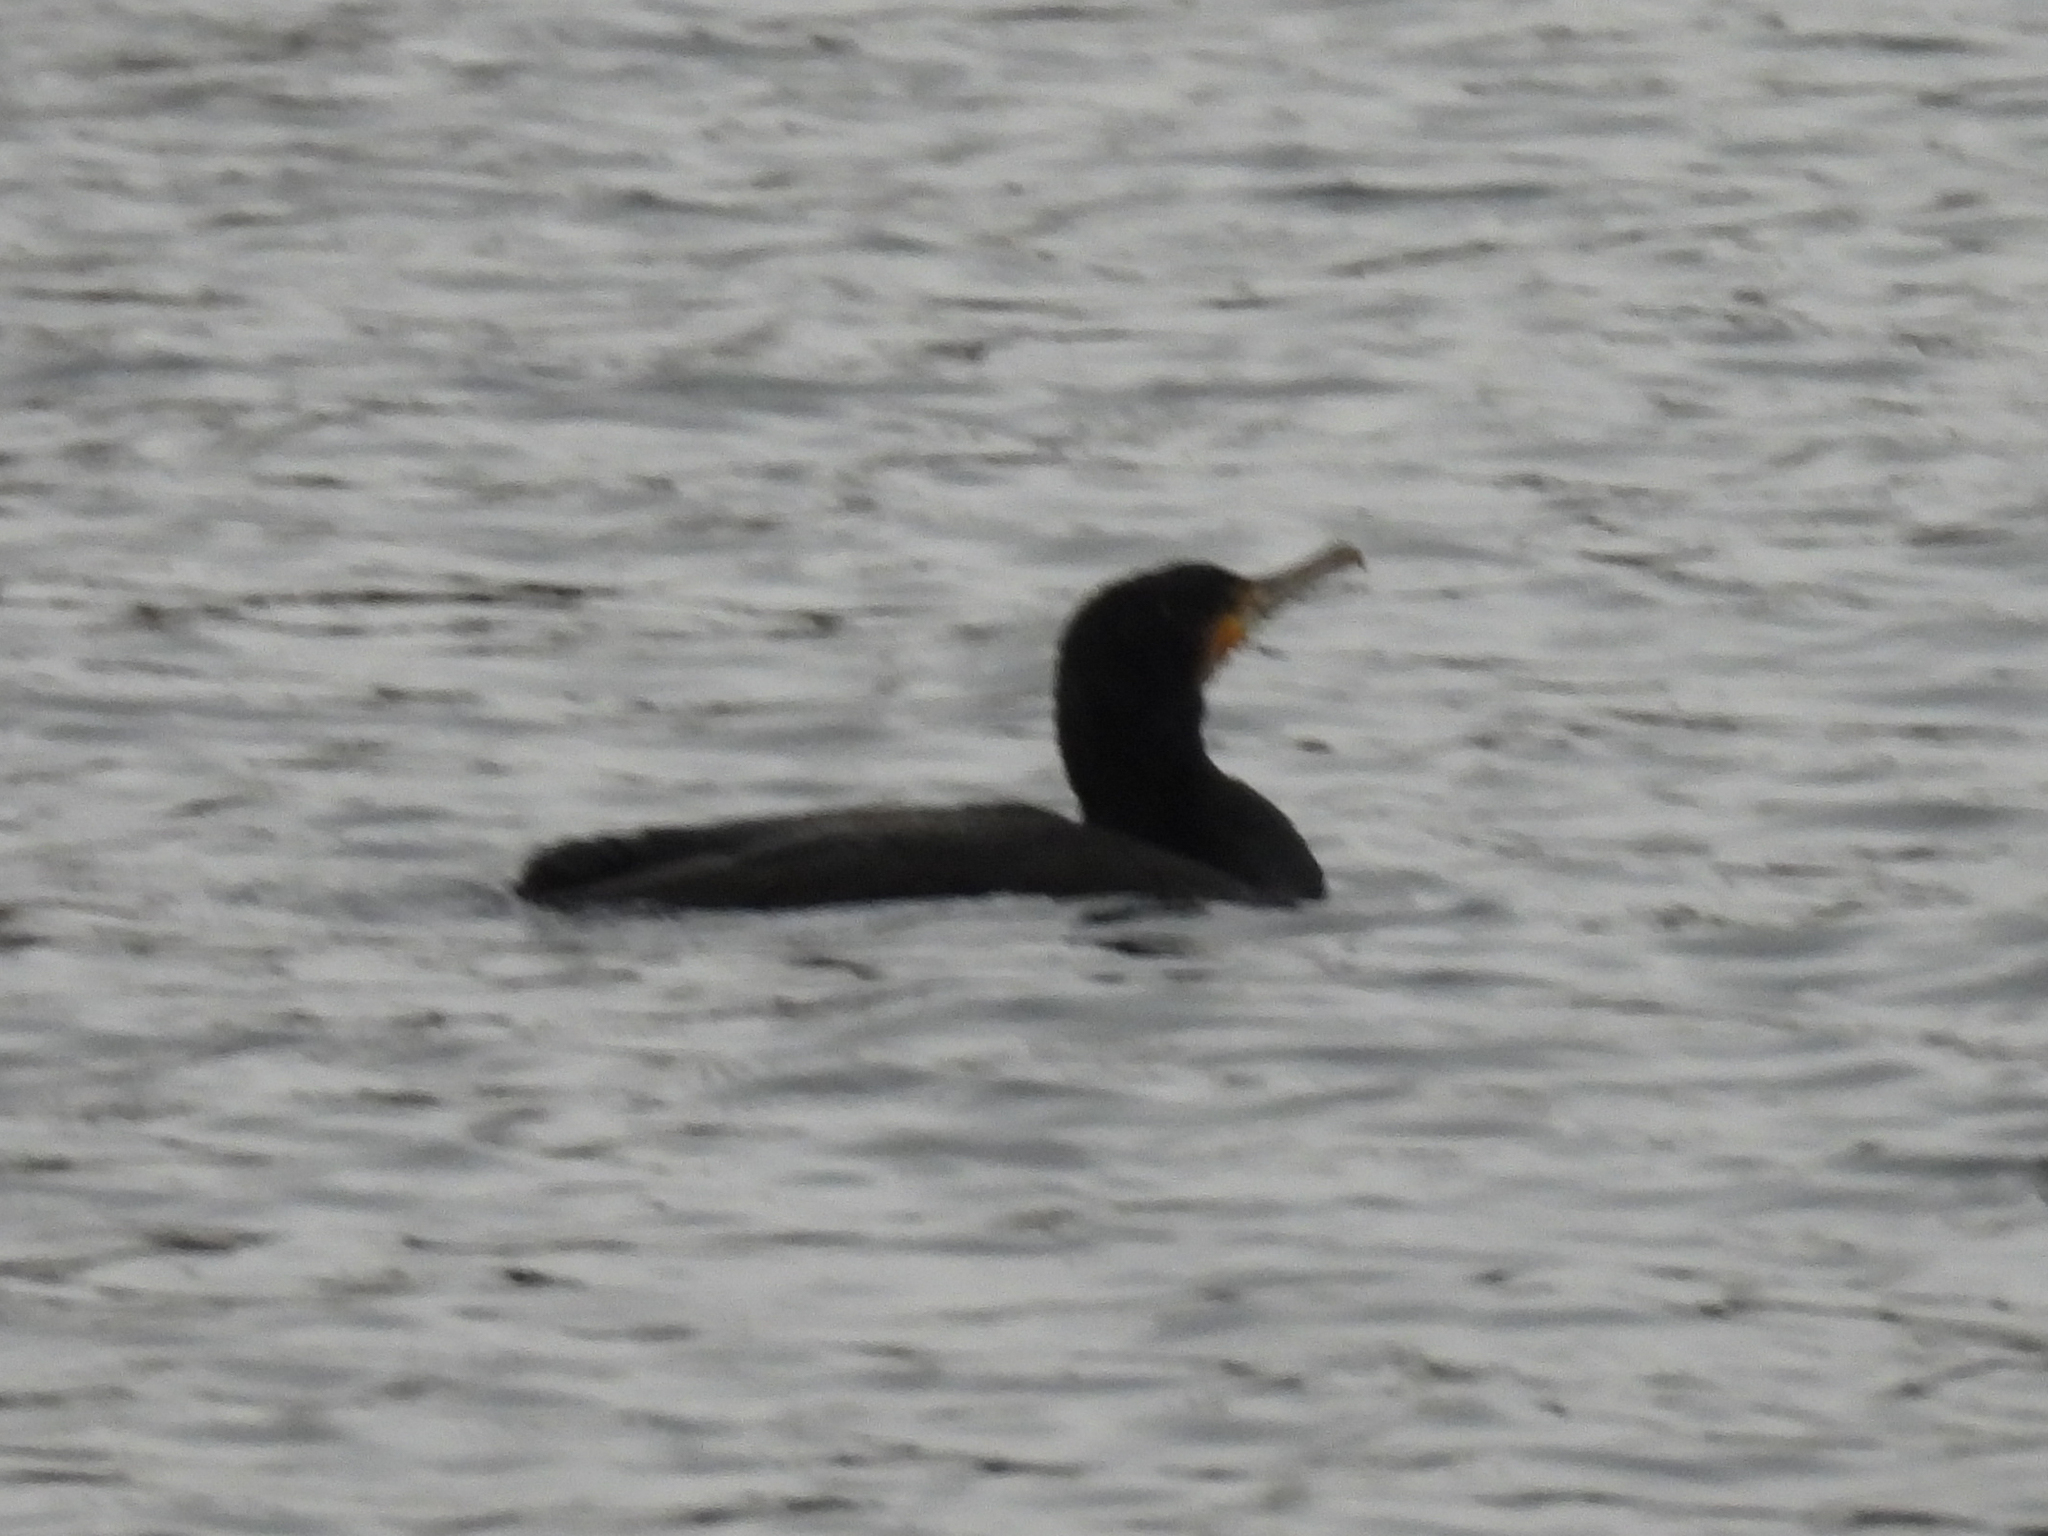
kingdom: Animalia
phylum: Chordata
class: Aves
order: Suliformes
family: Phalacrocoracidae
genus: Phalacrocorax
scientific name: Phalacrocorax carbo
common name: Great cormorant
